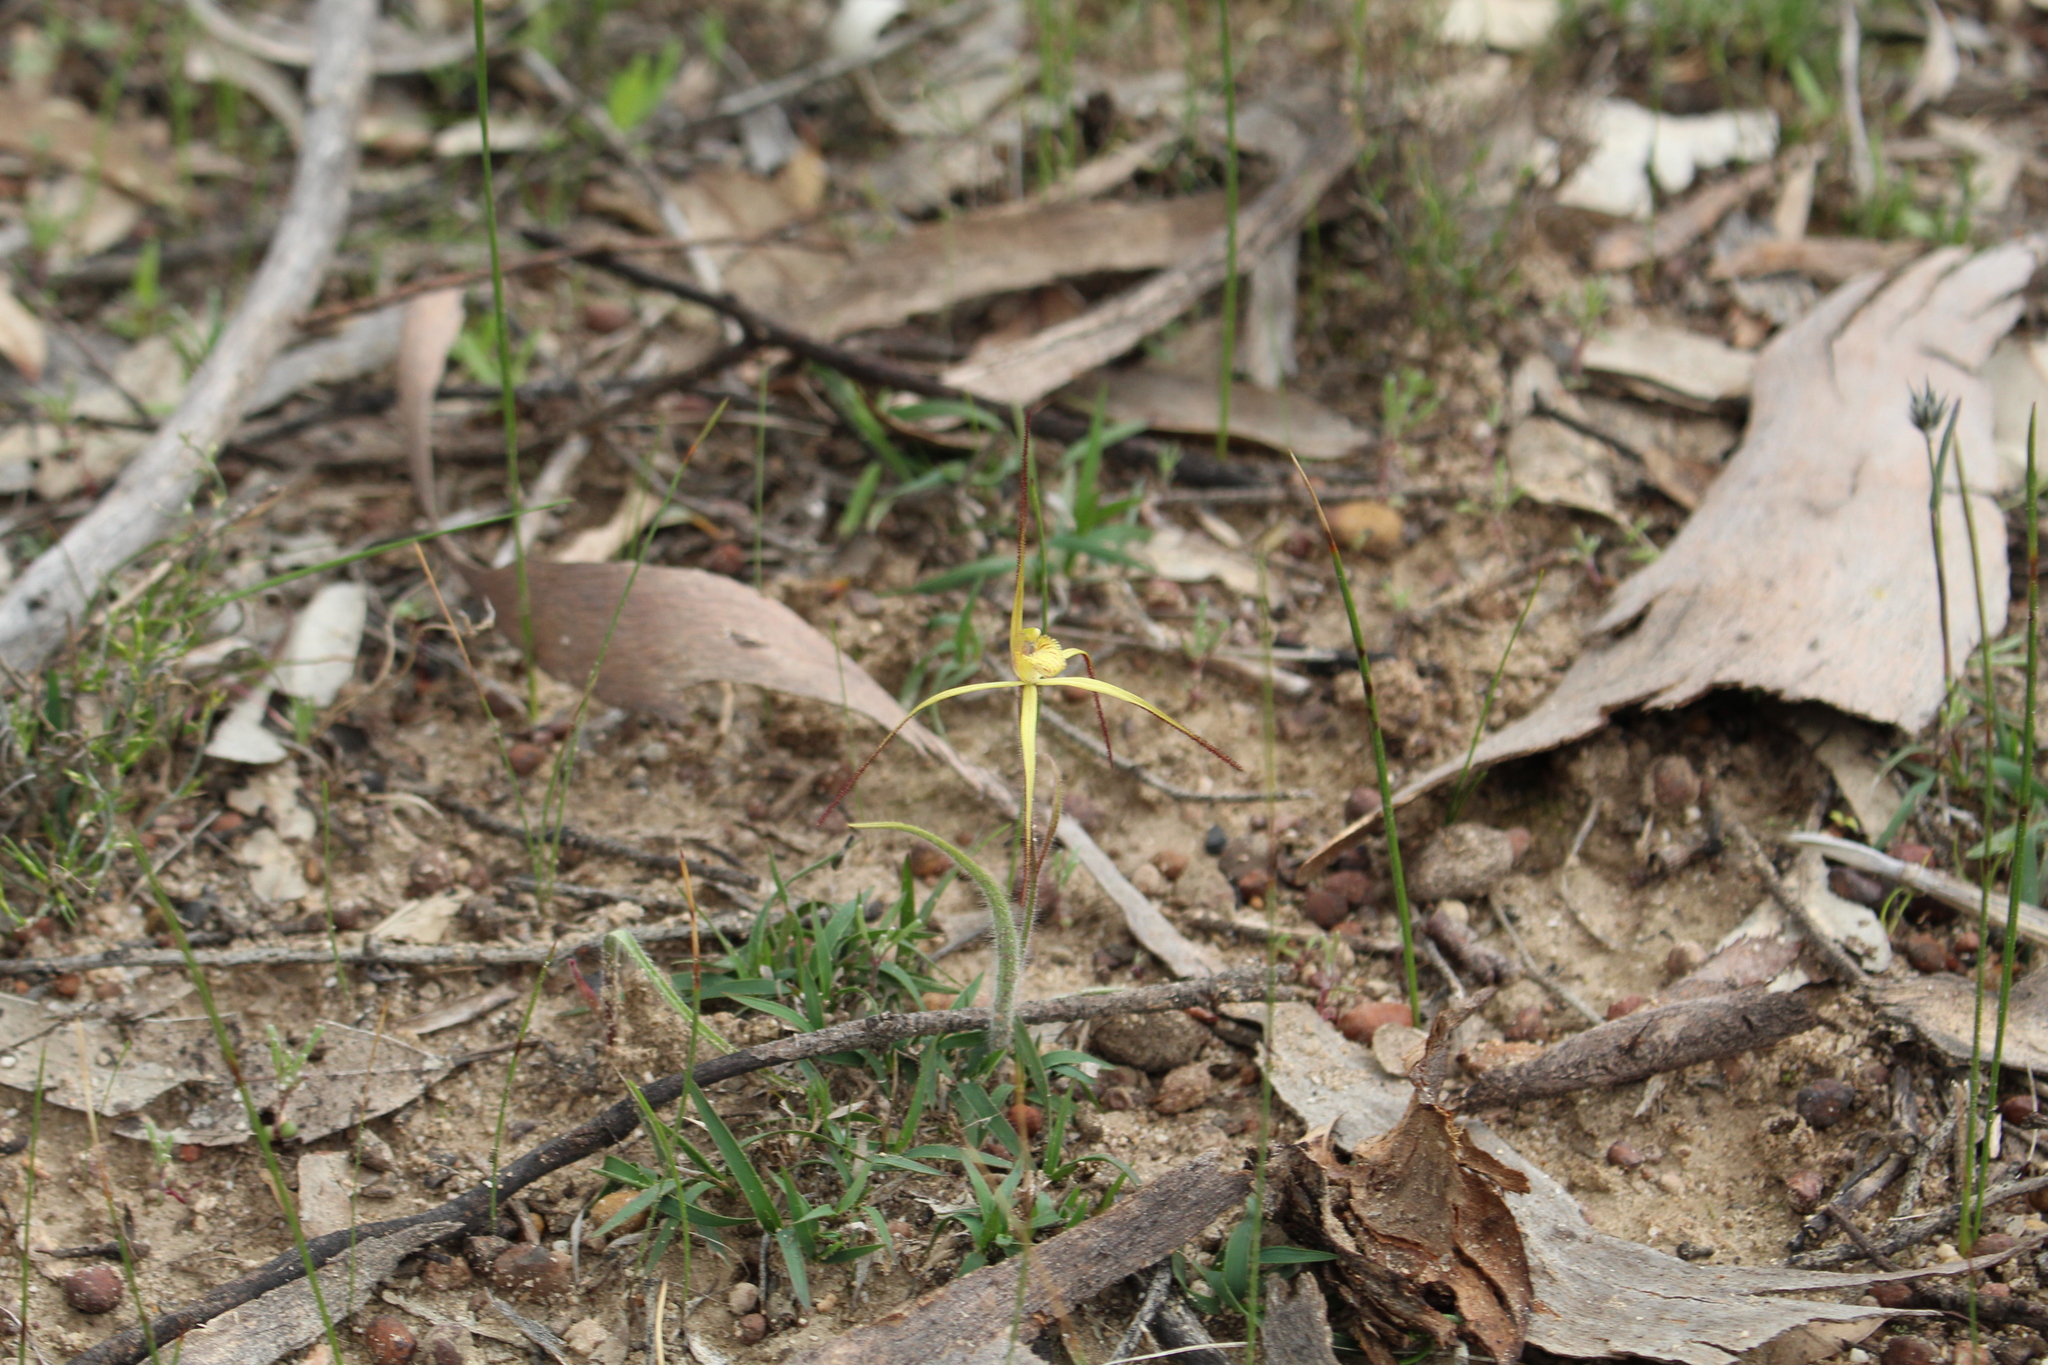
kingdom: Plantae
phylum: Tracheophyta
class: Liliopsida
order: Asparagales
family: Orchidaceae
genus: Caladenia
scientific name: Caladenia xantha
